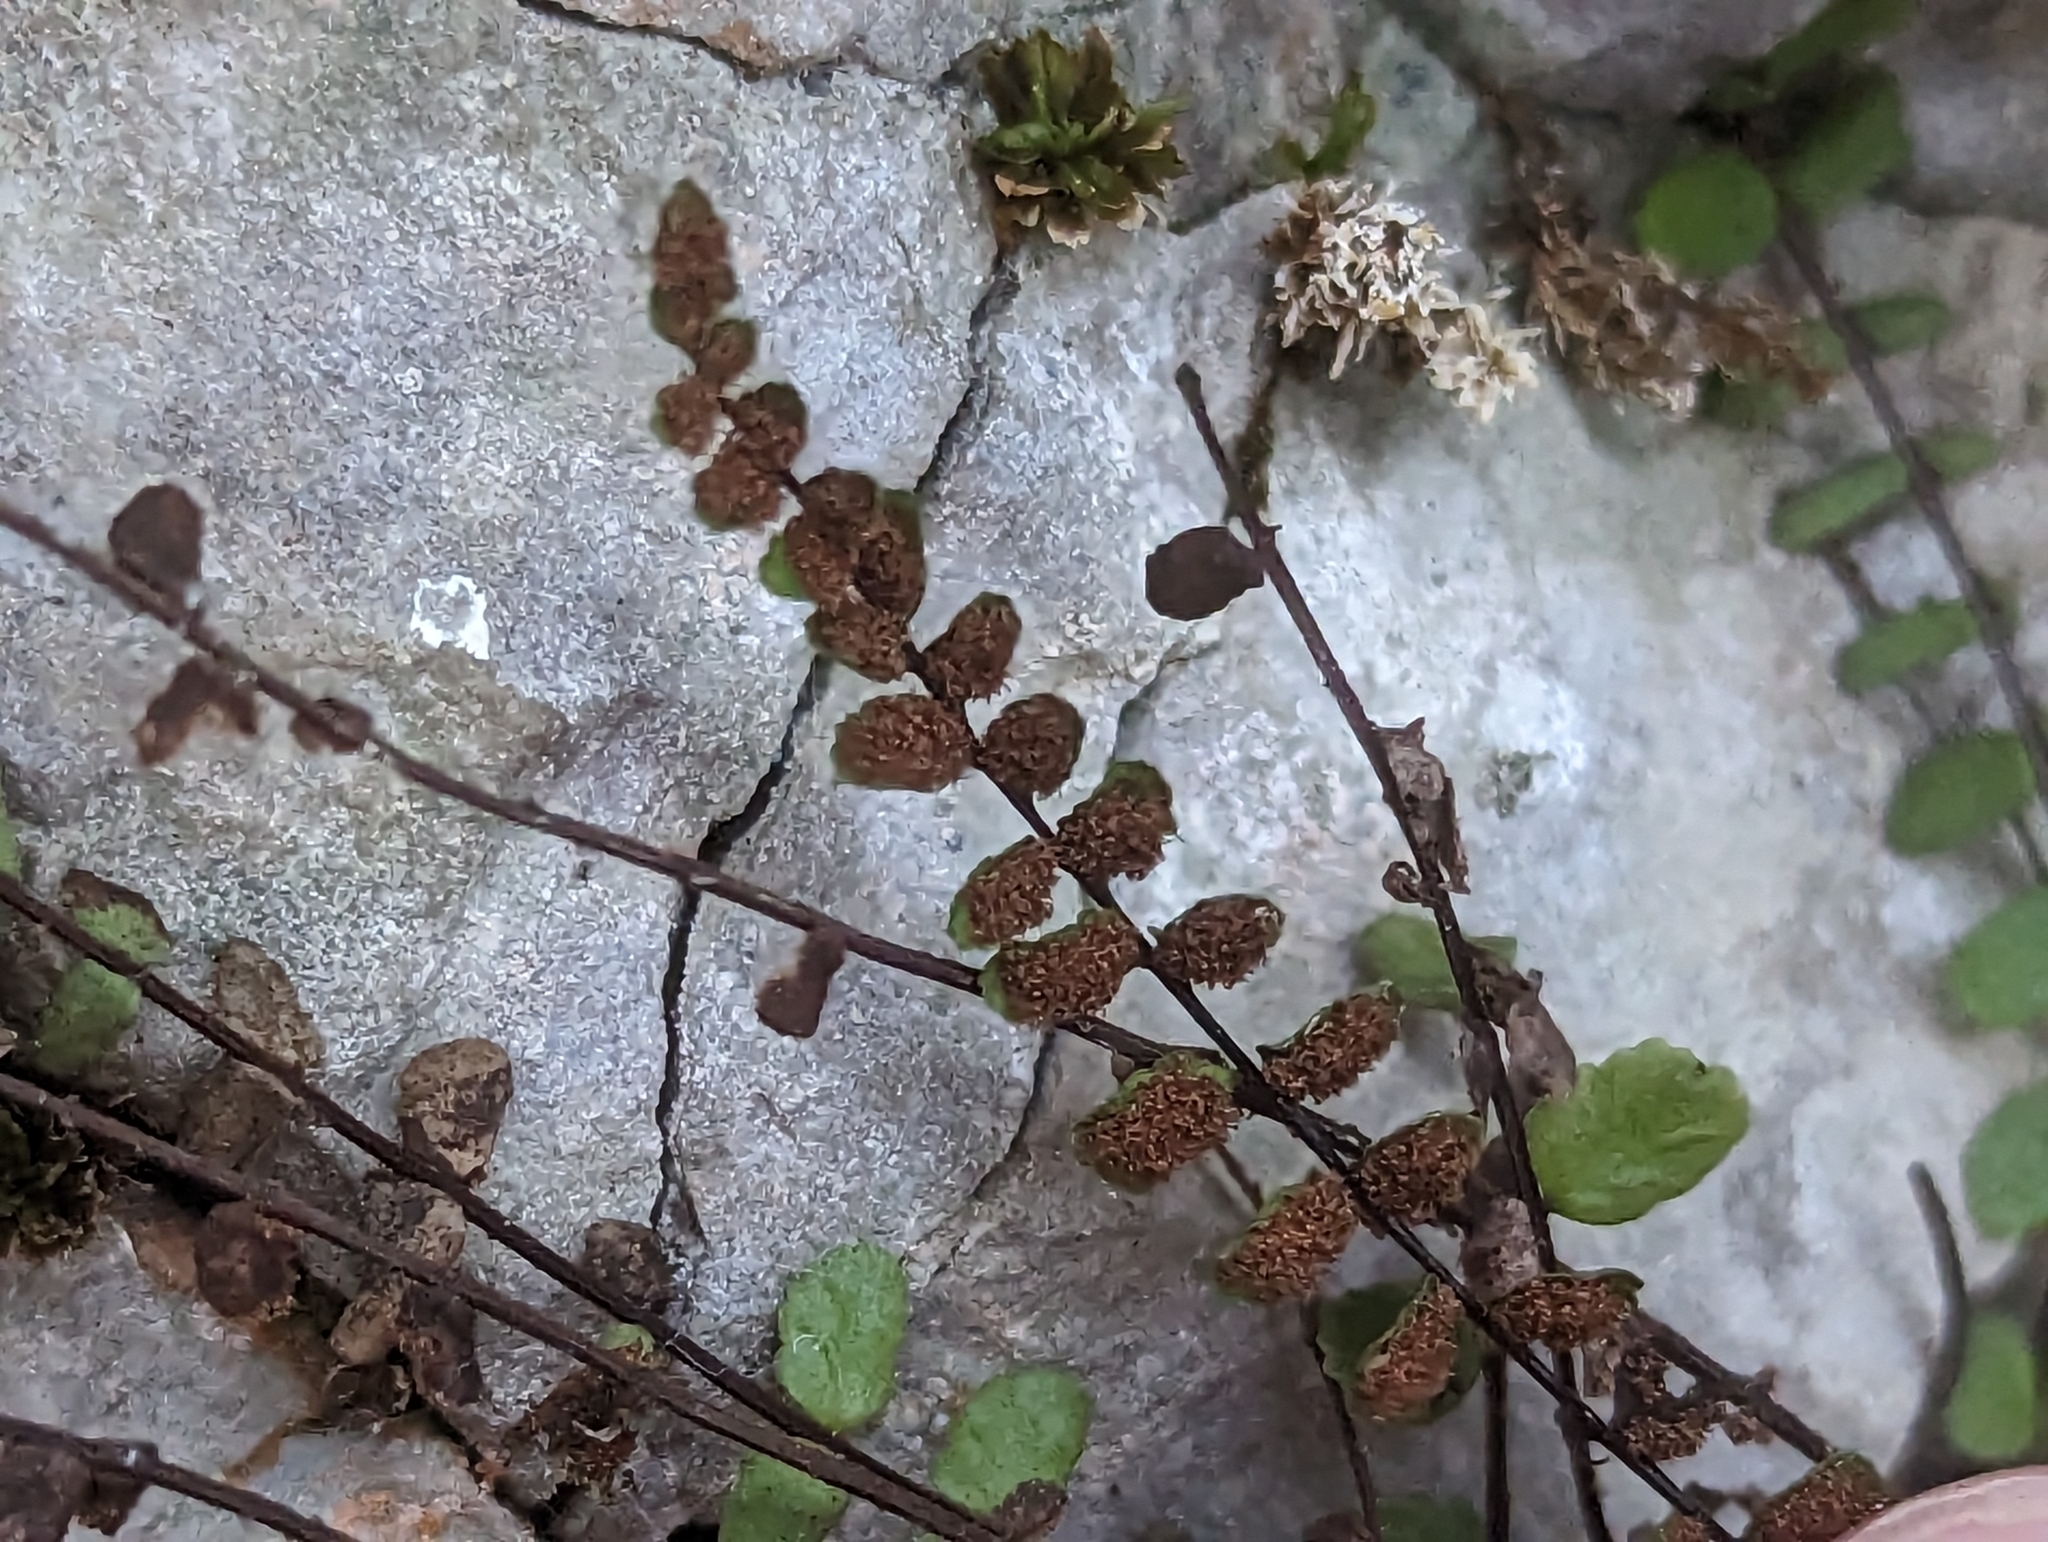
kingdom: Plantae
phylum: Tracheophyta
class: Polypodiopsida
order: Polypodiales
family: Aspleniaceae
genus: Asplenium
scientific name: Asplenium trichomanes
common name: Maidenhair spleenwort
